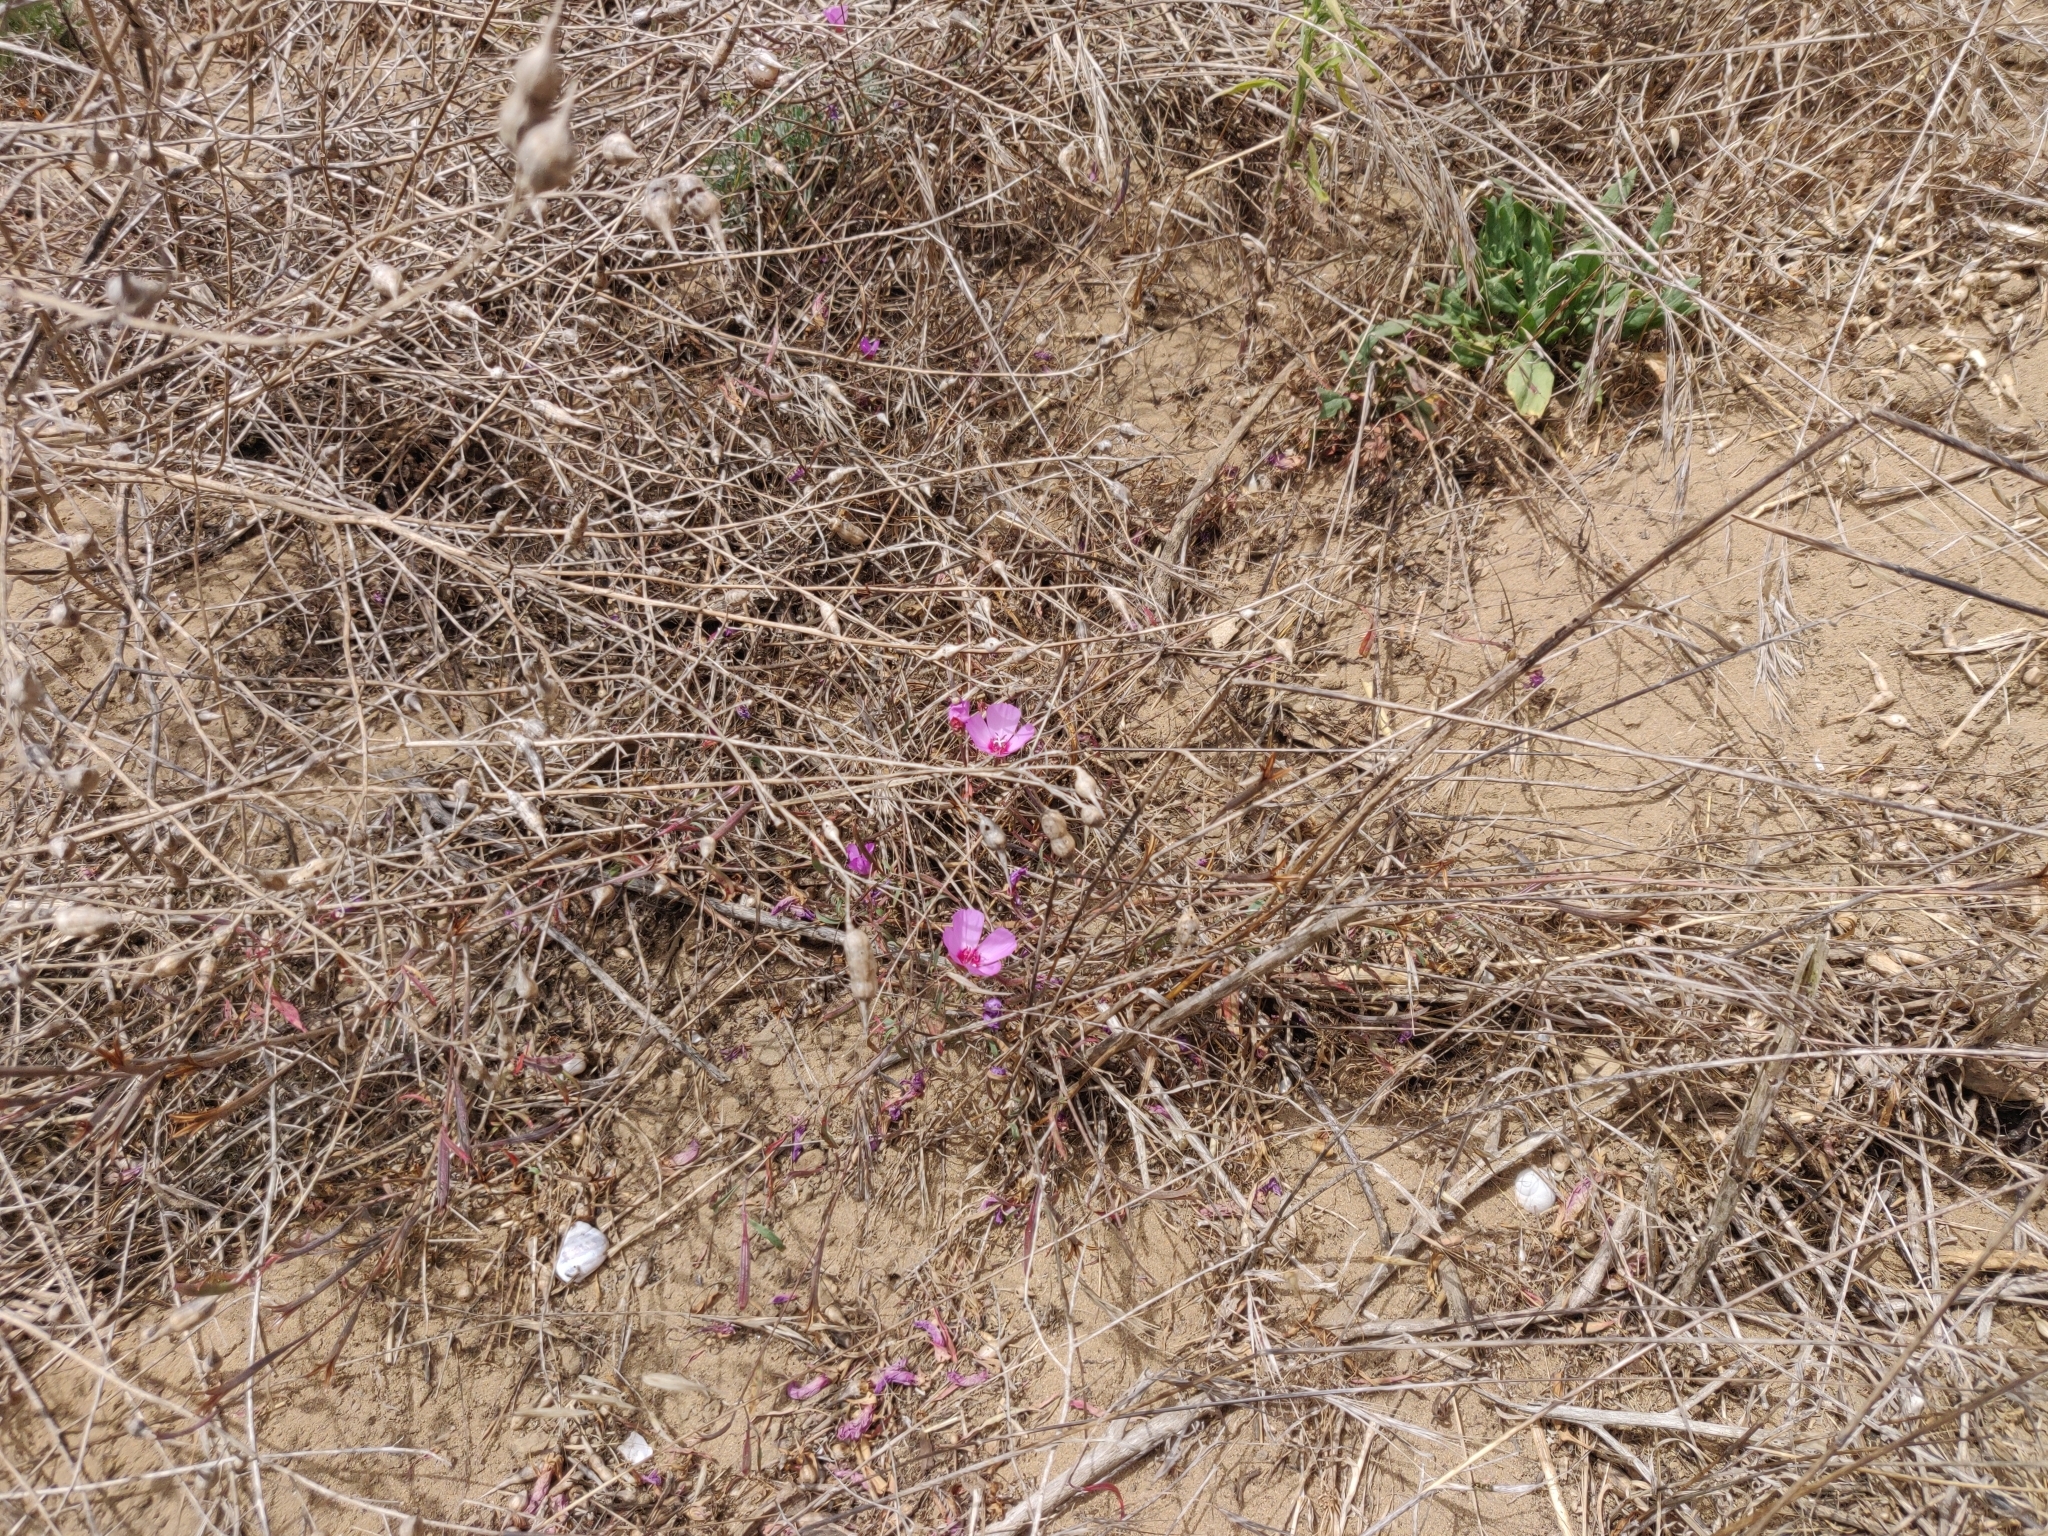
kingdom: Plantae
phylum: Tracheophyta
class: Magnoliopsida
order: Myrtales
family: Onagraceae
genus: Clarkia
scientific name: Clarkia rubicunda
